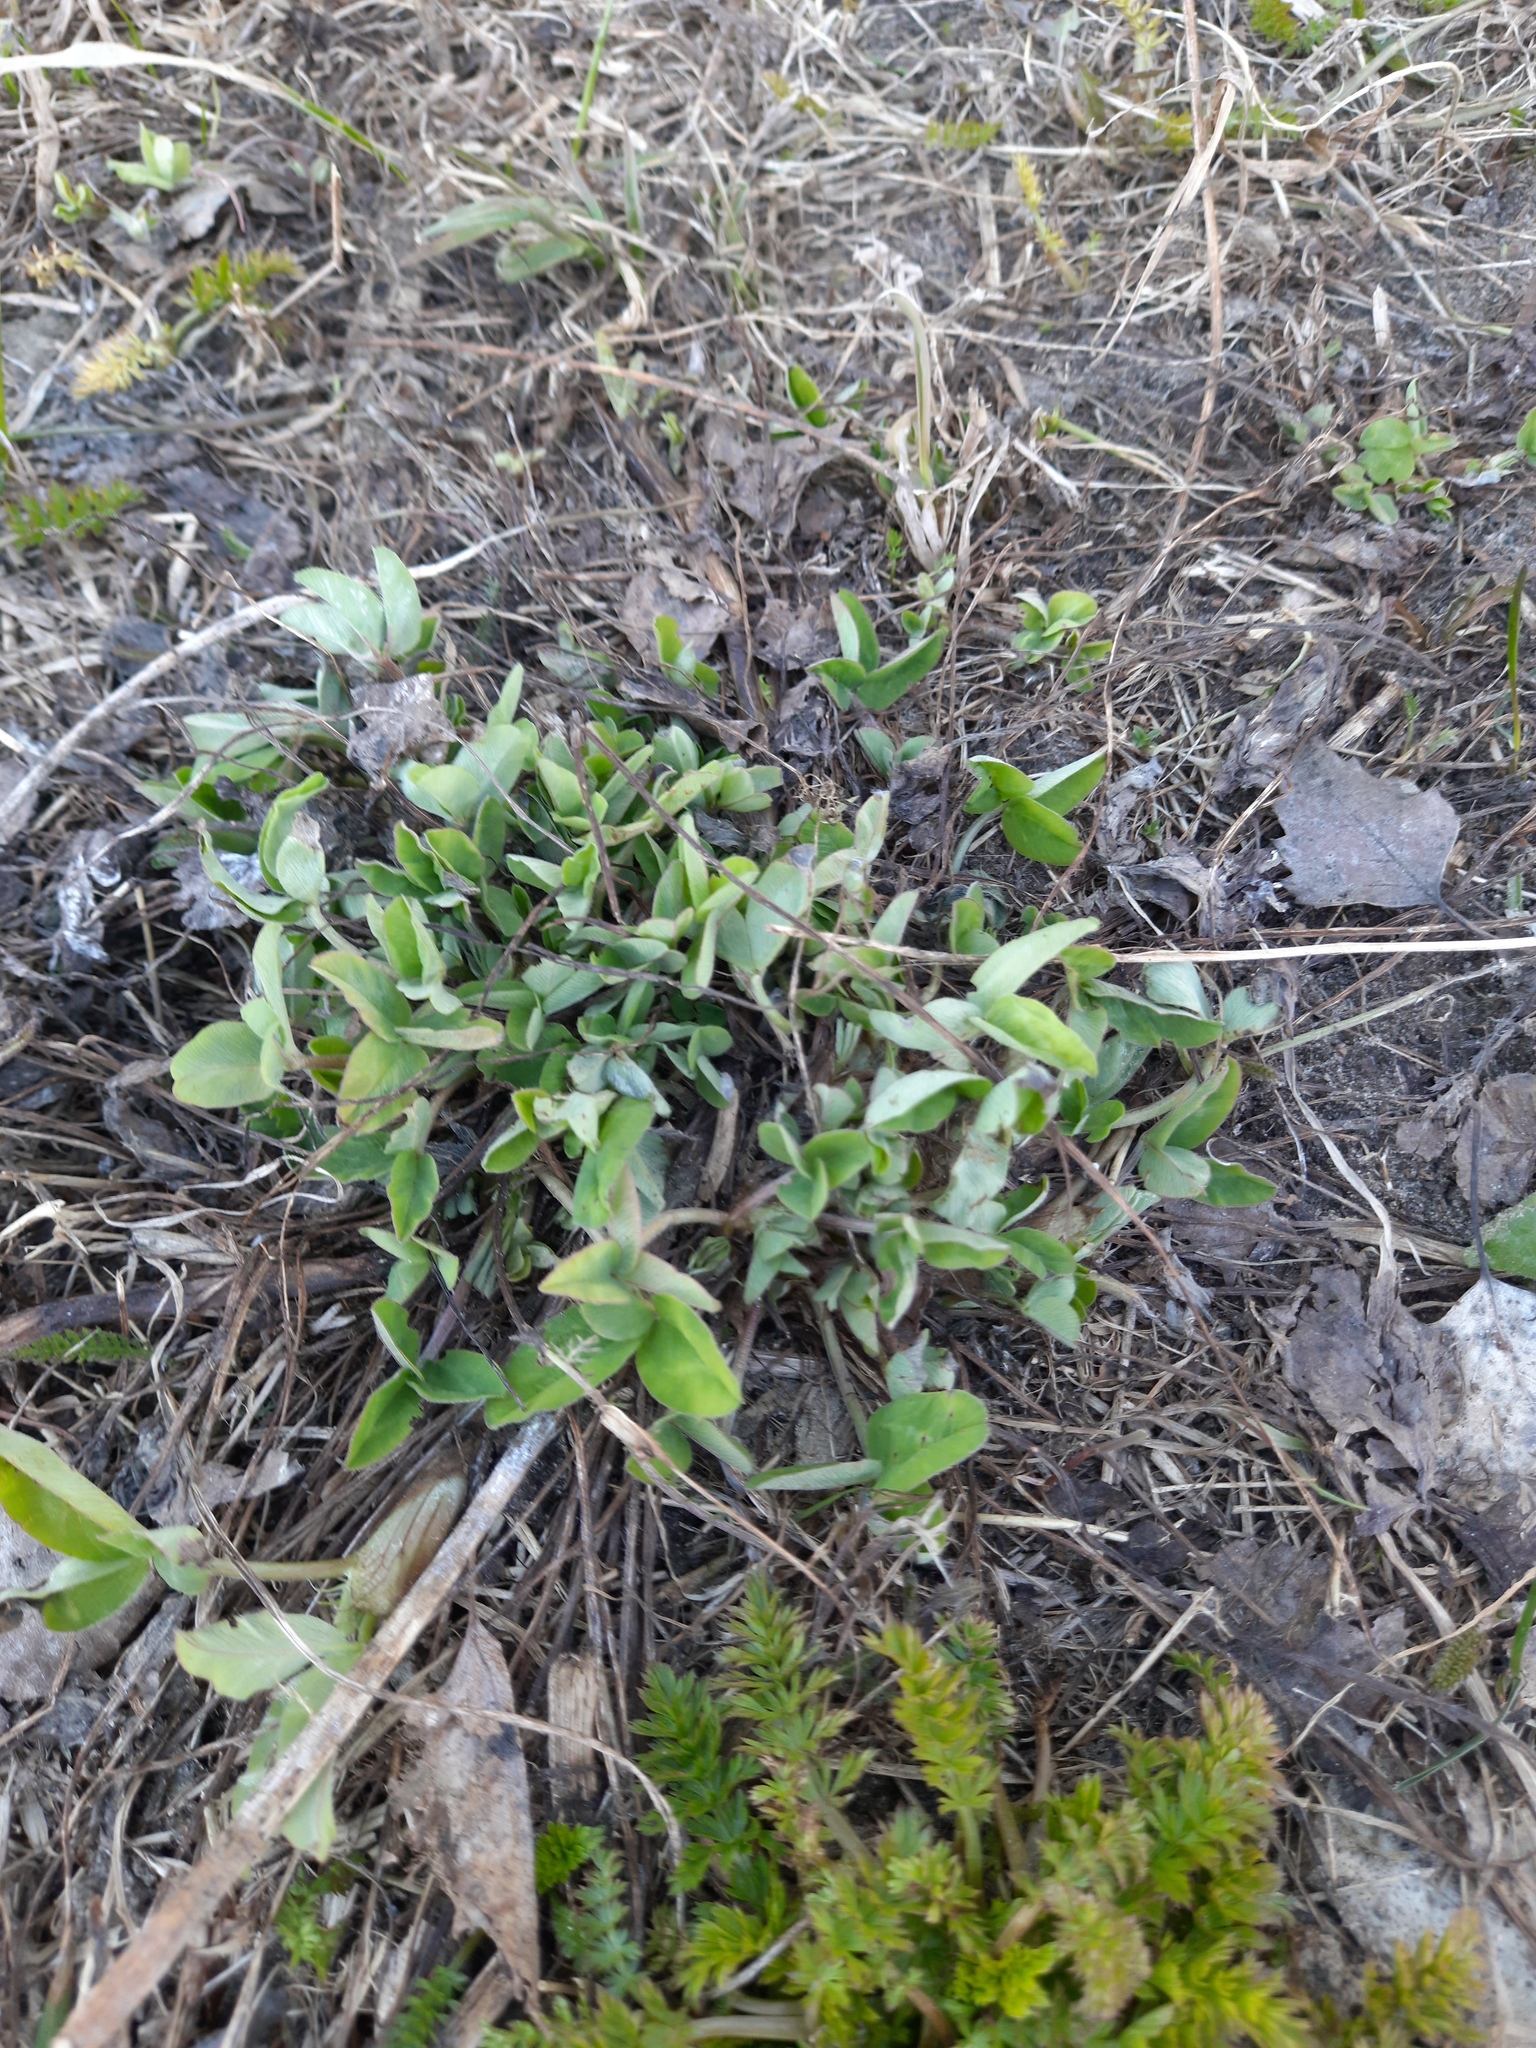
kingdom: Plantae
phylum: Tracheophyta
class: Magnoliopsida
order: Fabales
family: Fabaceae
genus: Trifolium
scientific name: Trifolium pratense
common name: Red clover
